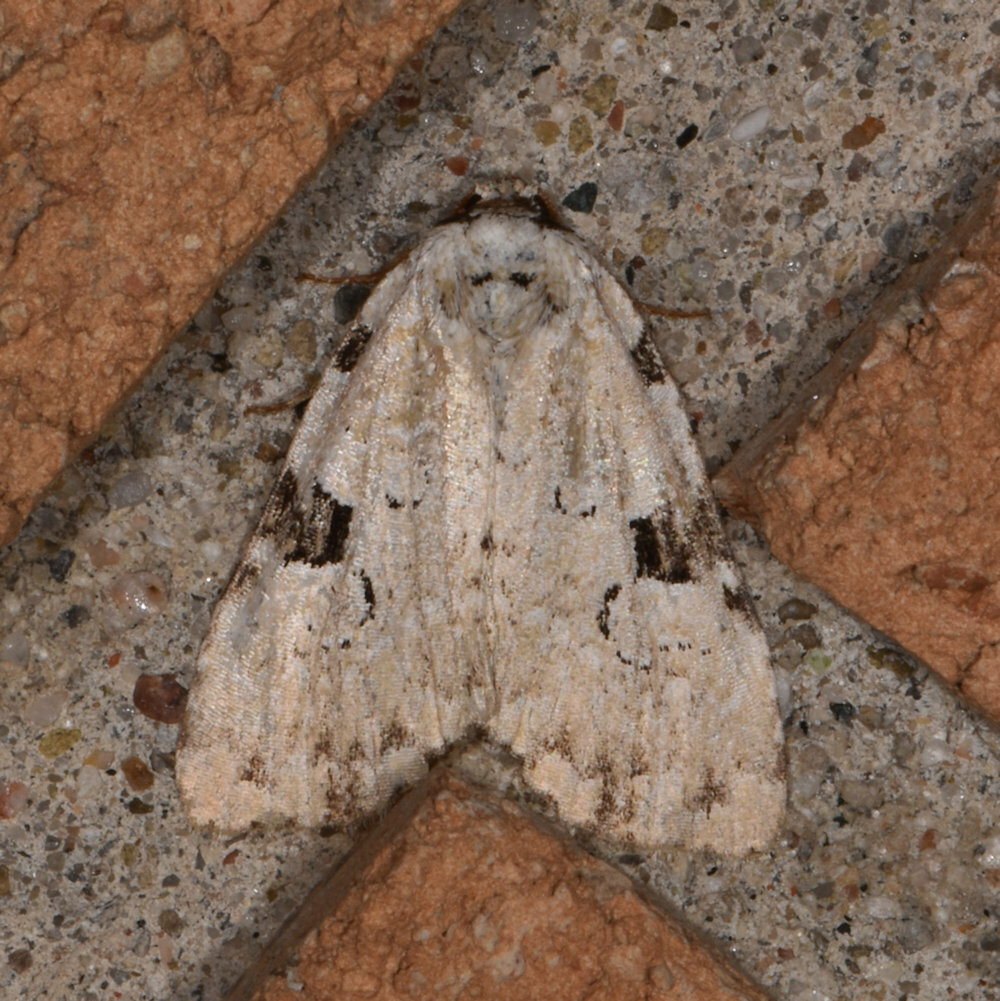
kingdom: Animalia
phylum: Arthropoda
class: Insecta
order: Lepidoptera
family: Noctuidae
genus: Leuconycta
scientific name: Leuconycta diphteroides
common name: Green leuconycta moth
